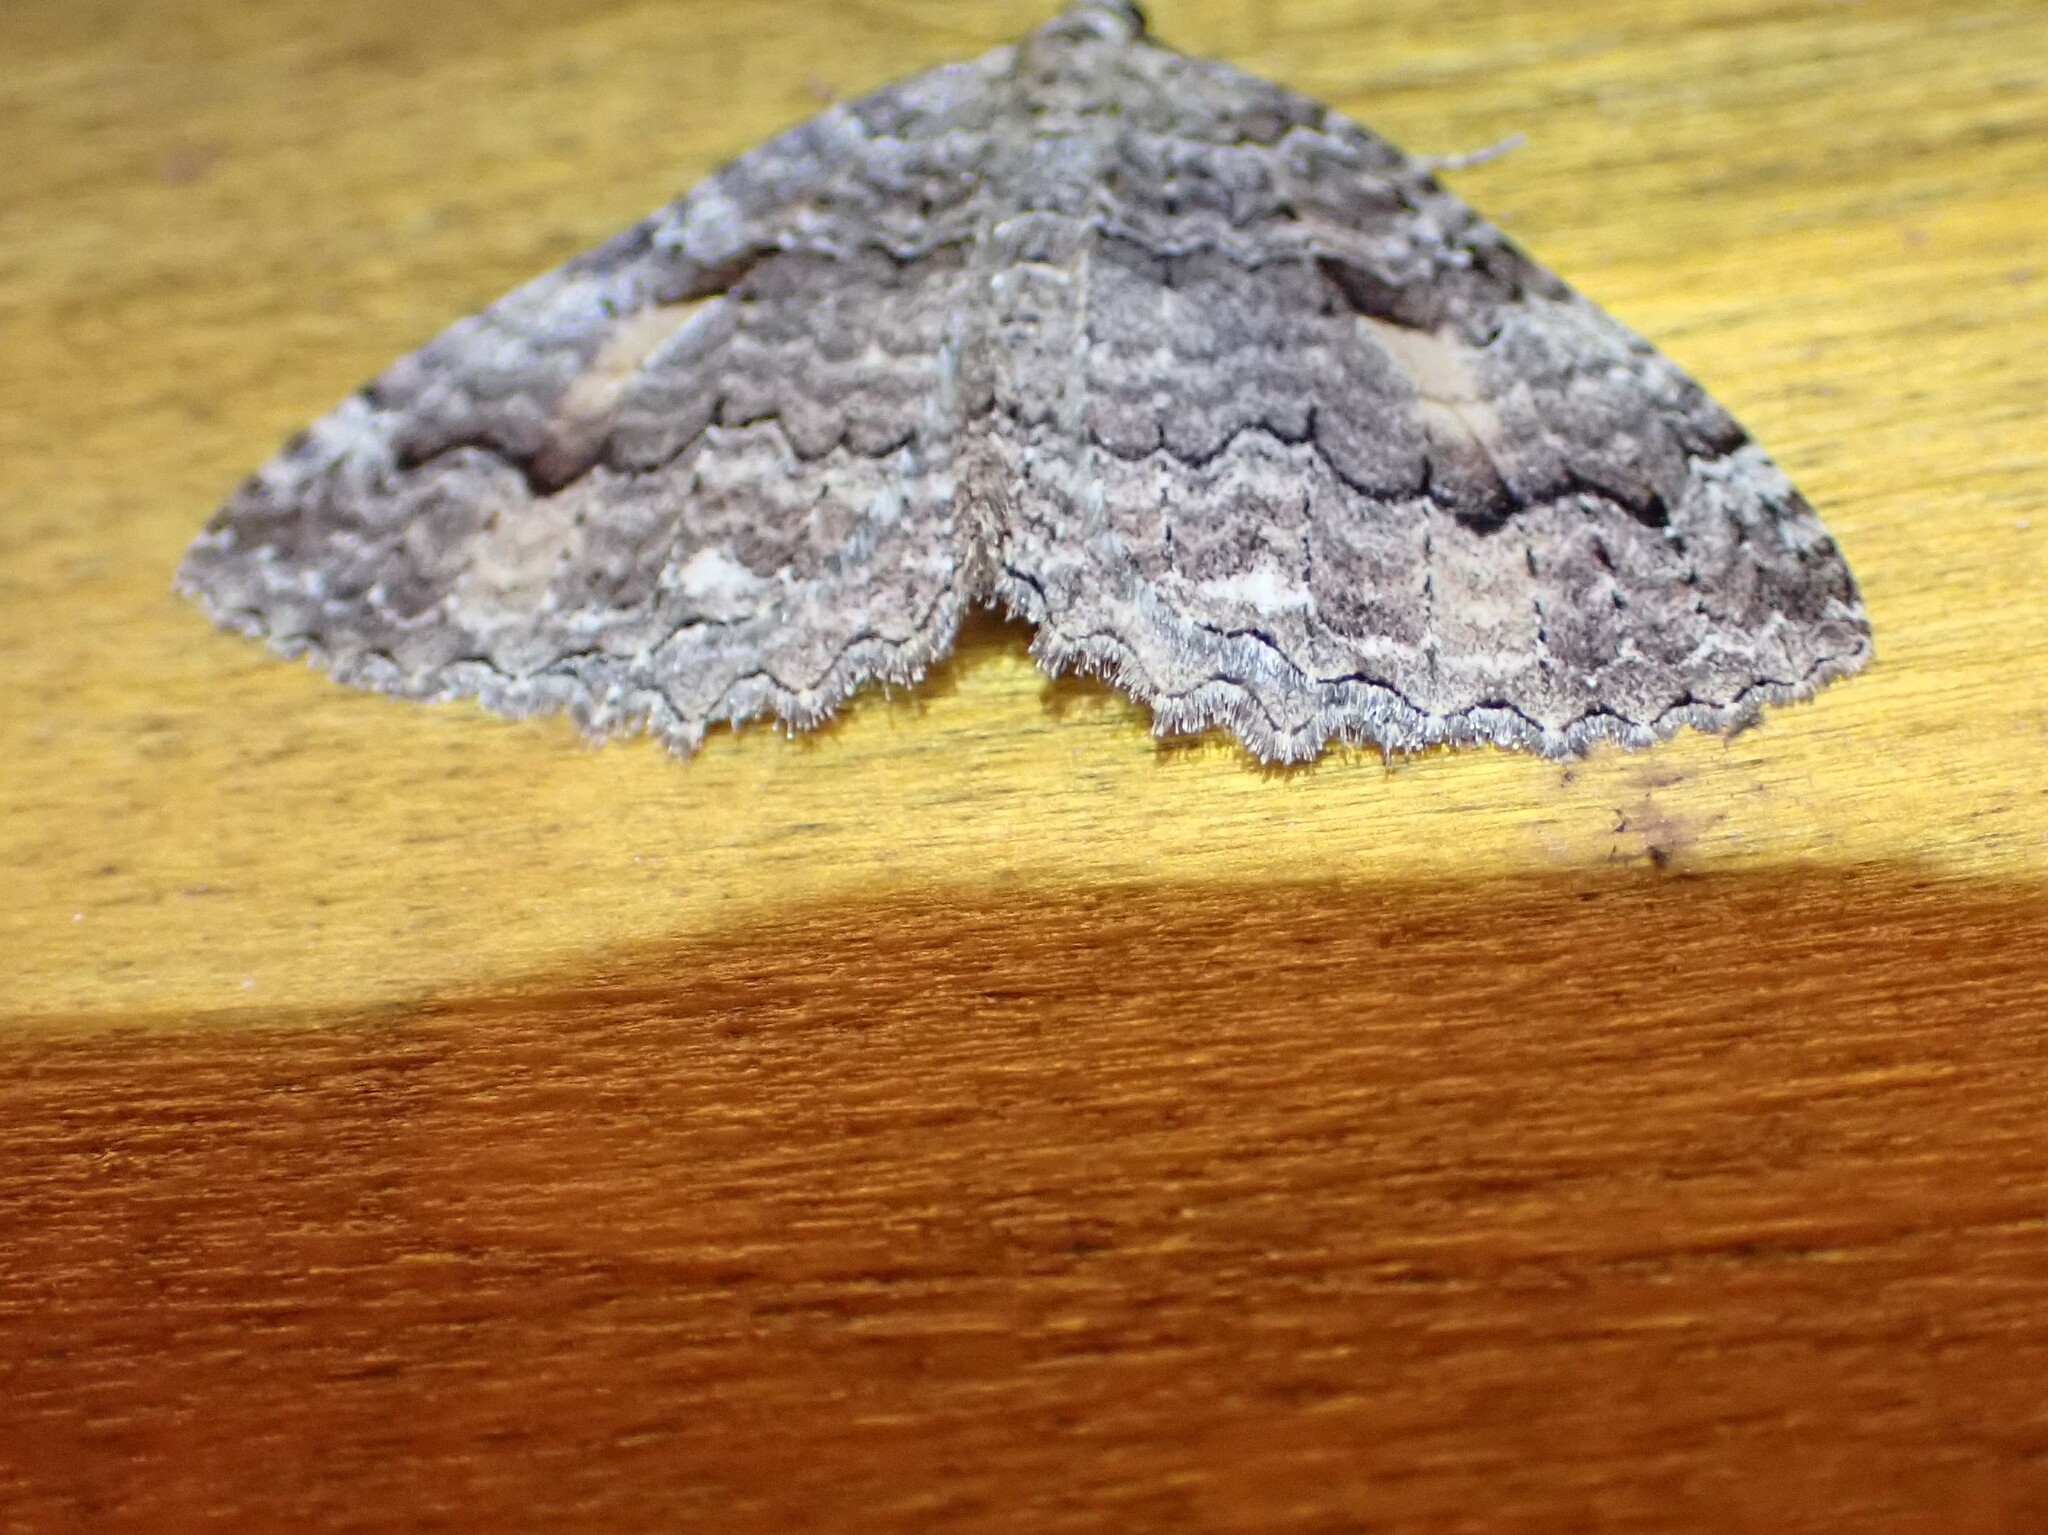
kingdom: Animalia
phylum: Arthropoda
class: Insecta
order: Lepidoptera
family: Geometridae
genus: Triphosa
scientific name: Triphosa haesitata
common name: Tissue moth
